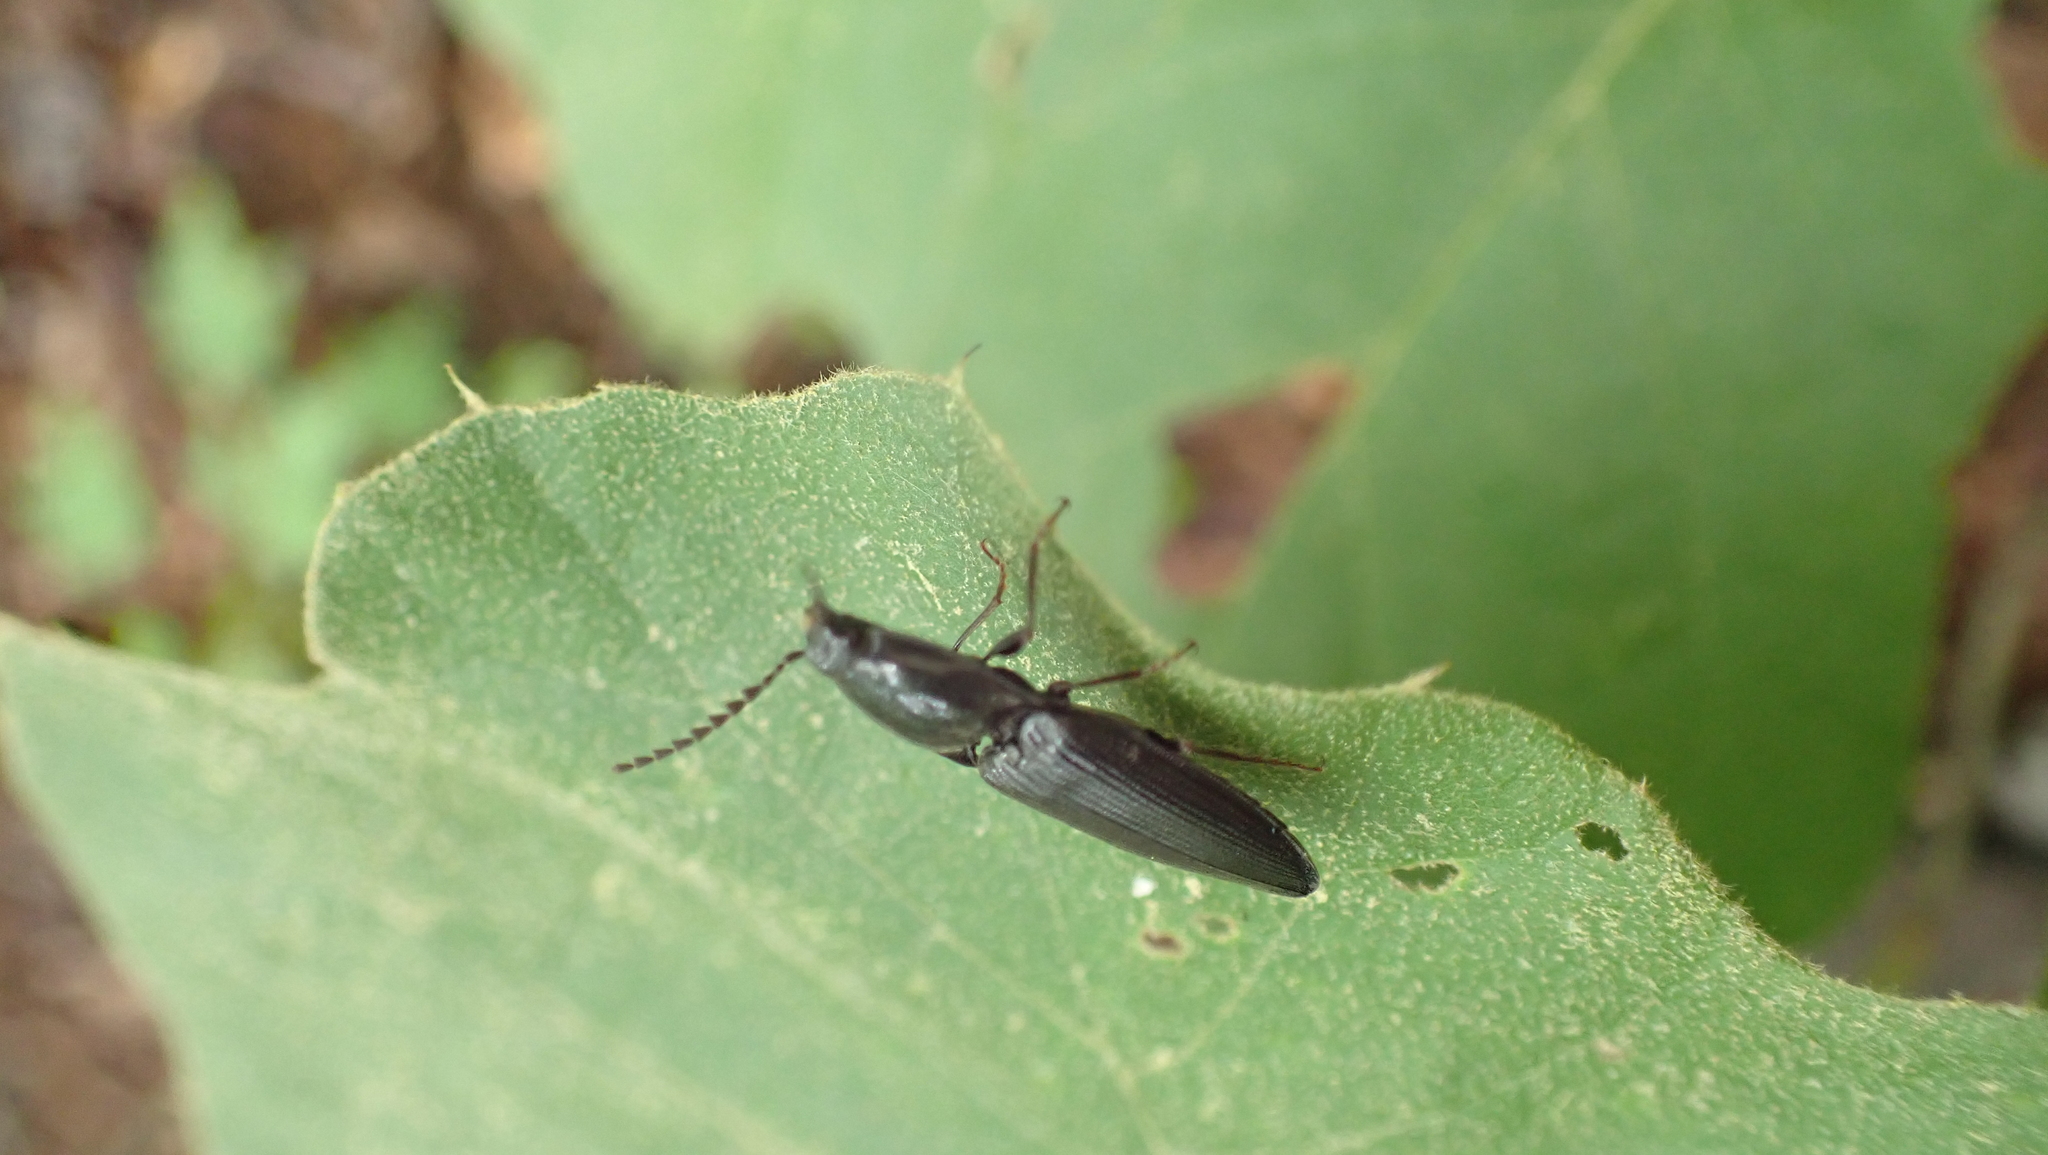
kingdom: Animalia
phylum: Arthropoda
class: Insecta
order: Coleoptera
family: Elateridae
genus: Neopristilophus
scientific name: Neopristilophus
